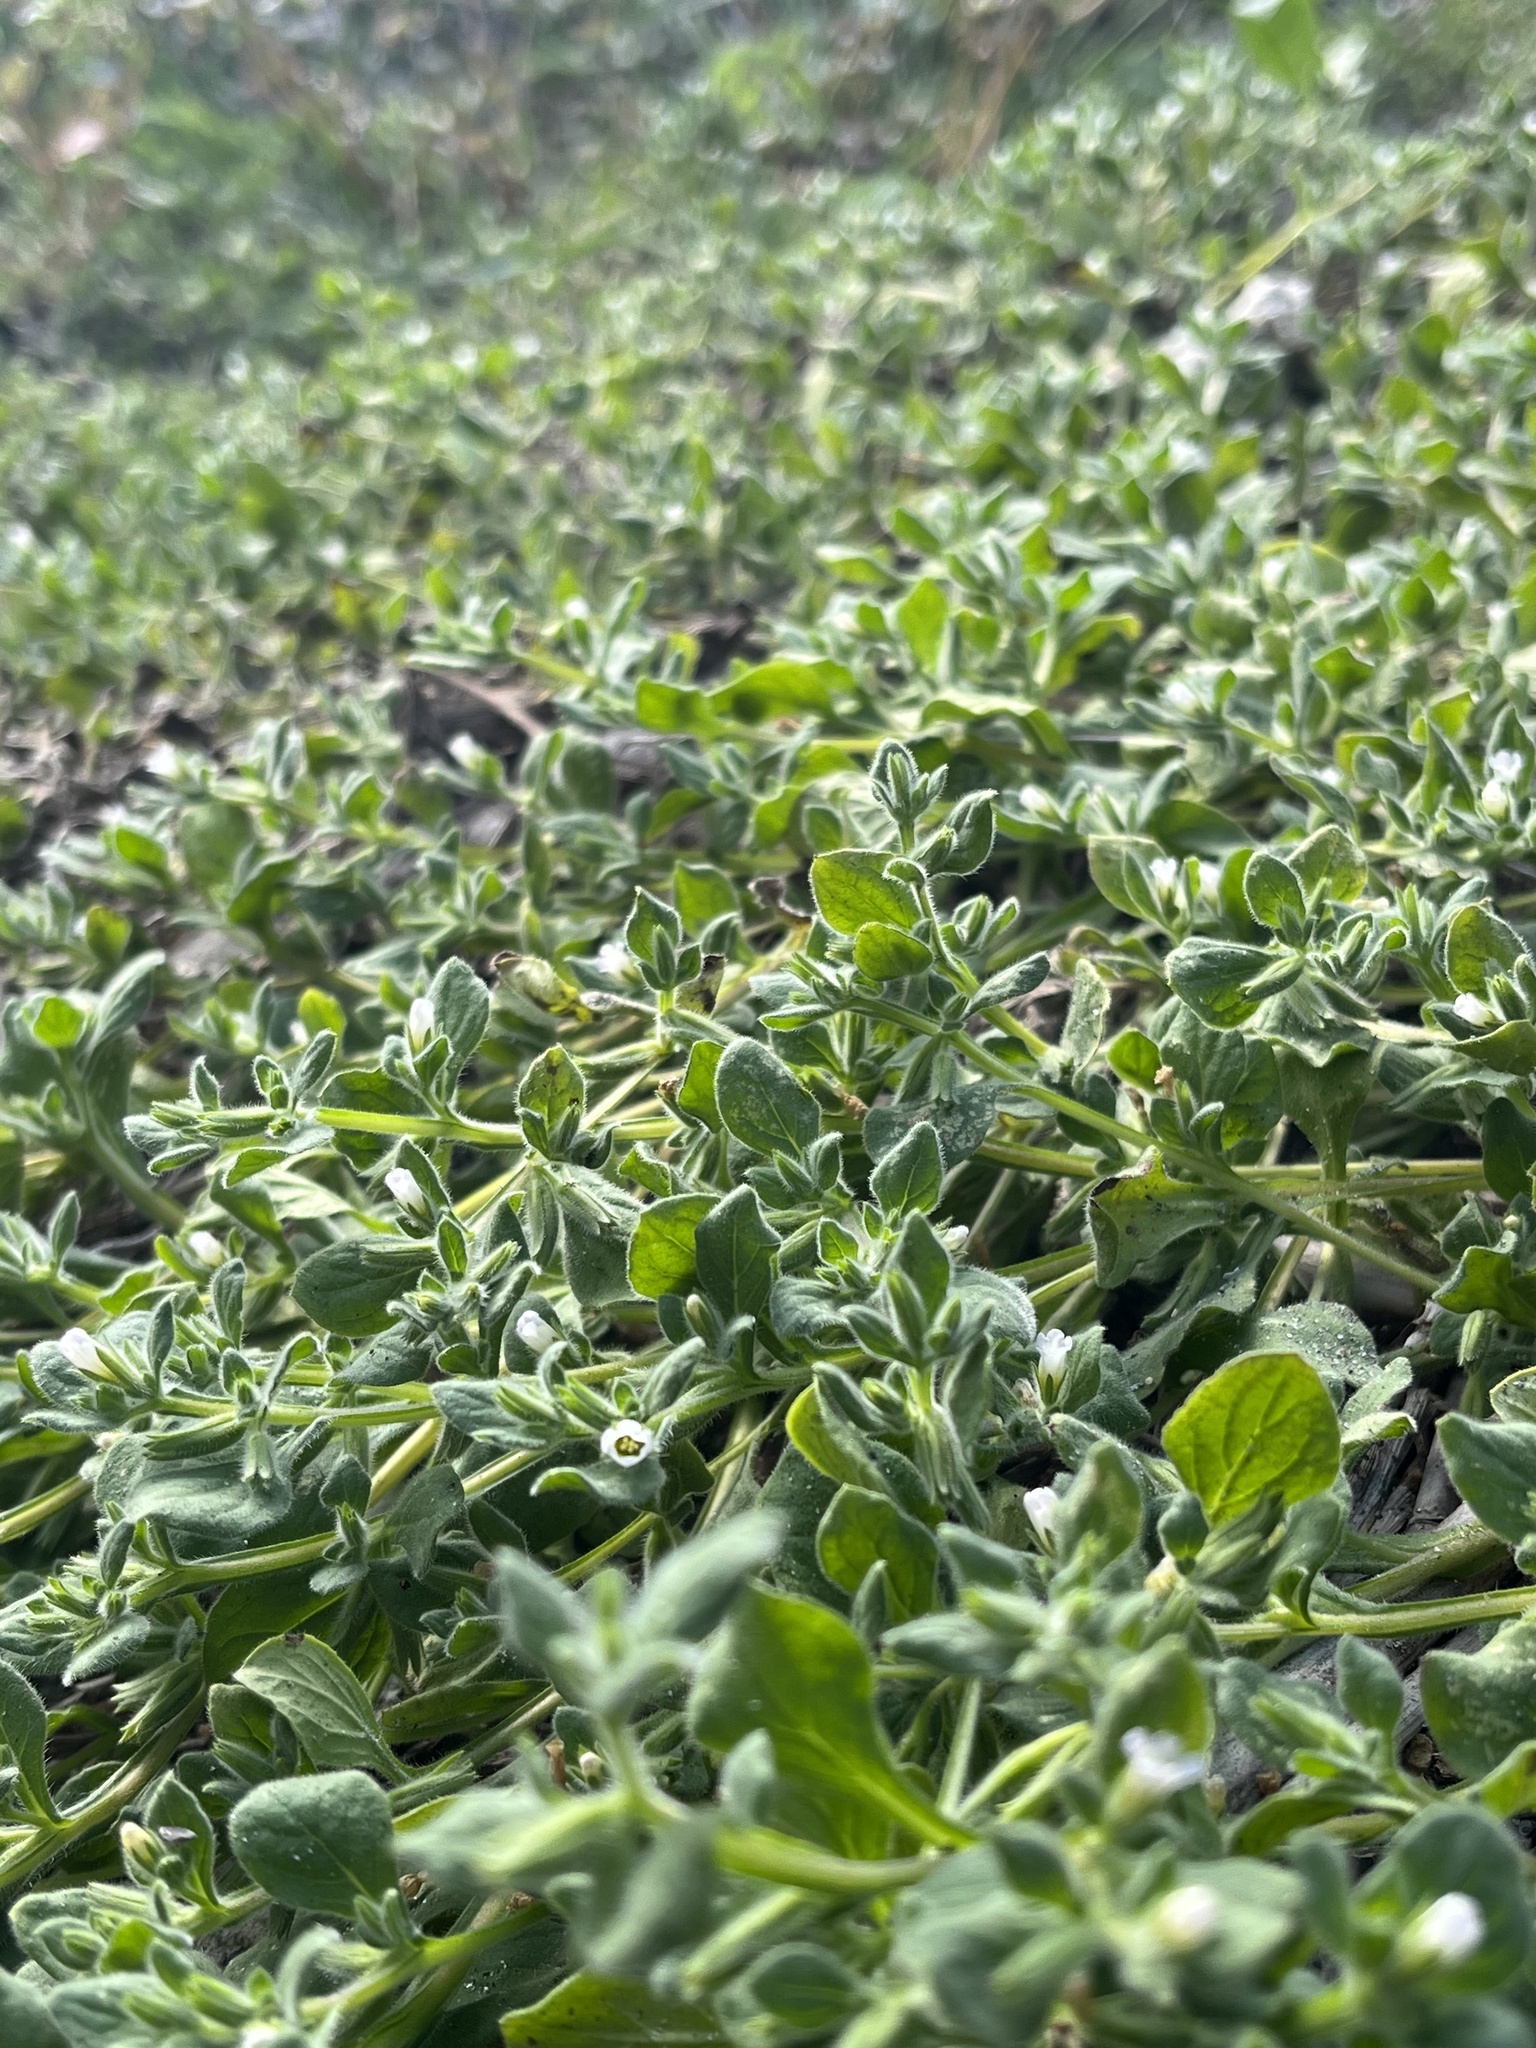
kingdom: Plantae
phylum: Tracheophyta
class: Magnoliopsida
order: Boraginales
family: Namaceae
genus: Nama
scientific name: Nama jamaicensis
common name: Jamaicanweed
